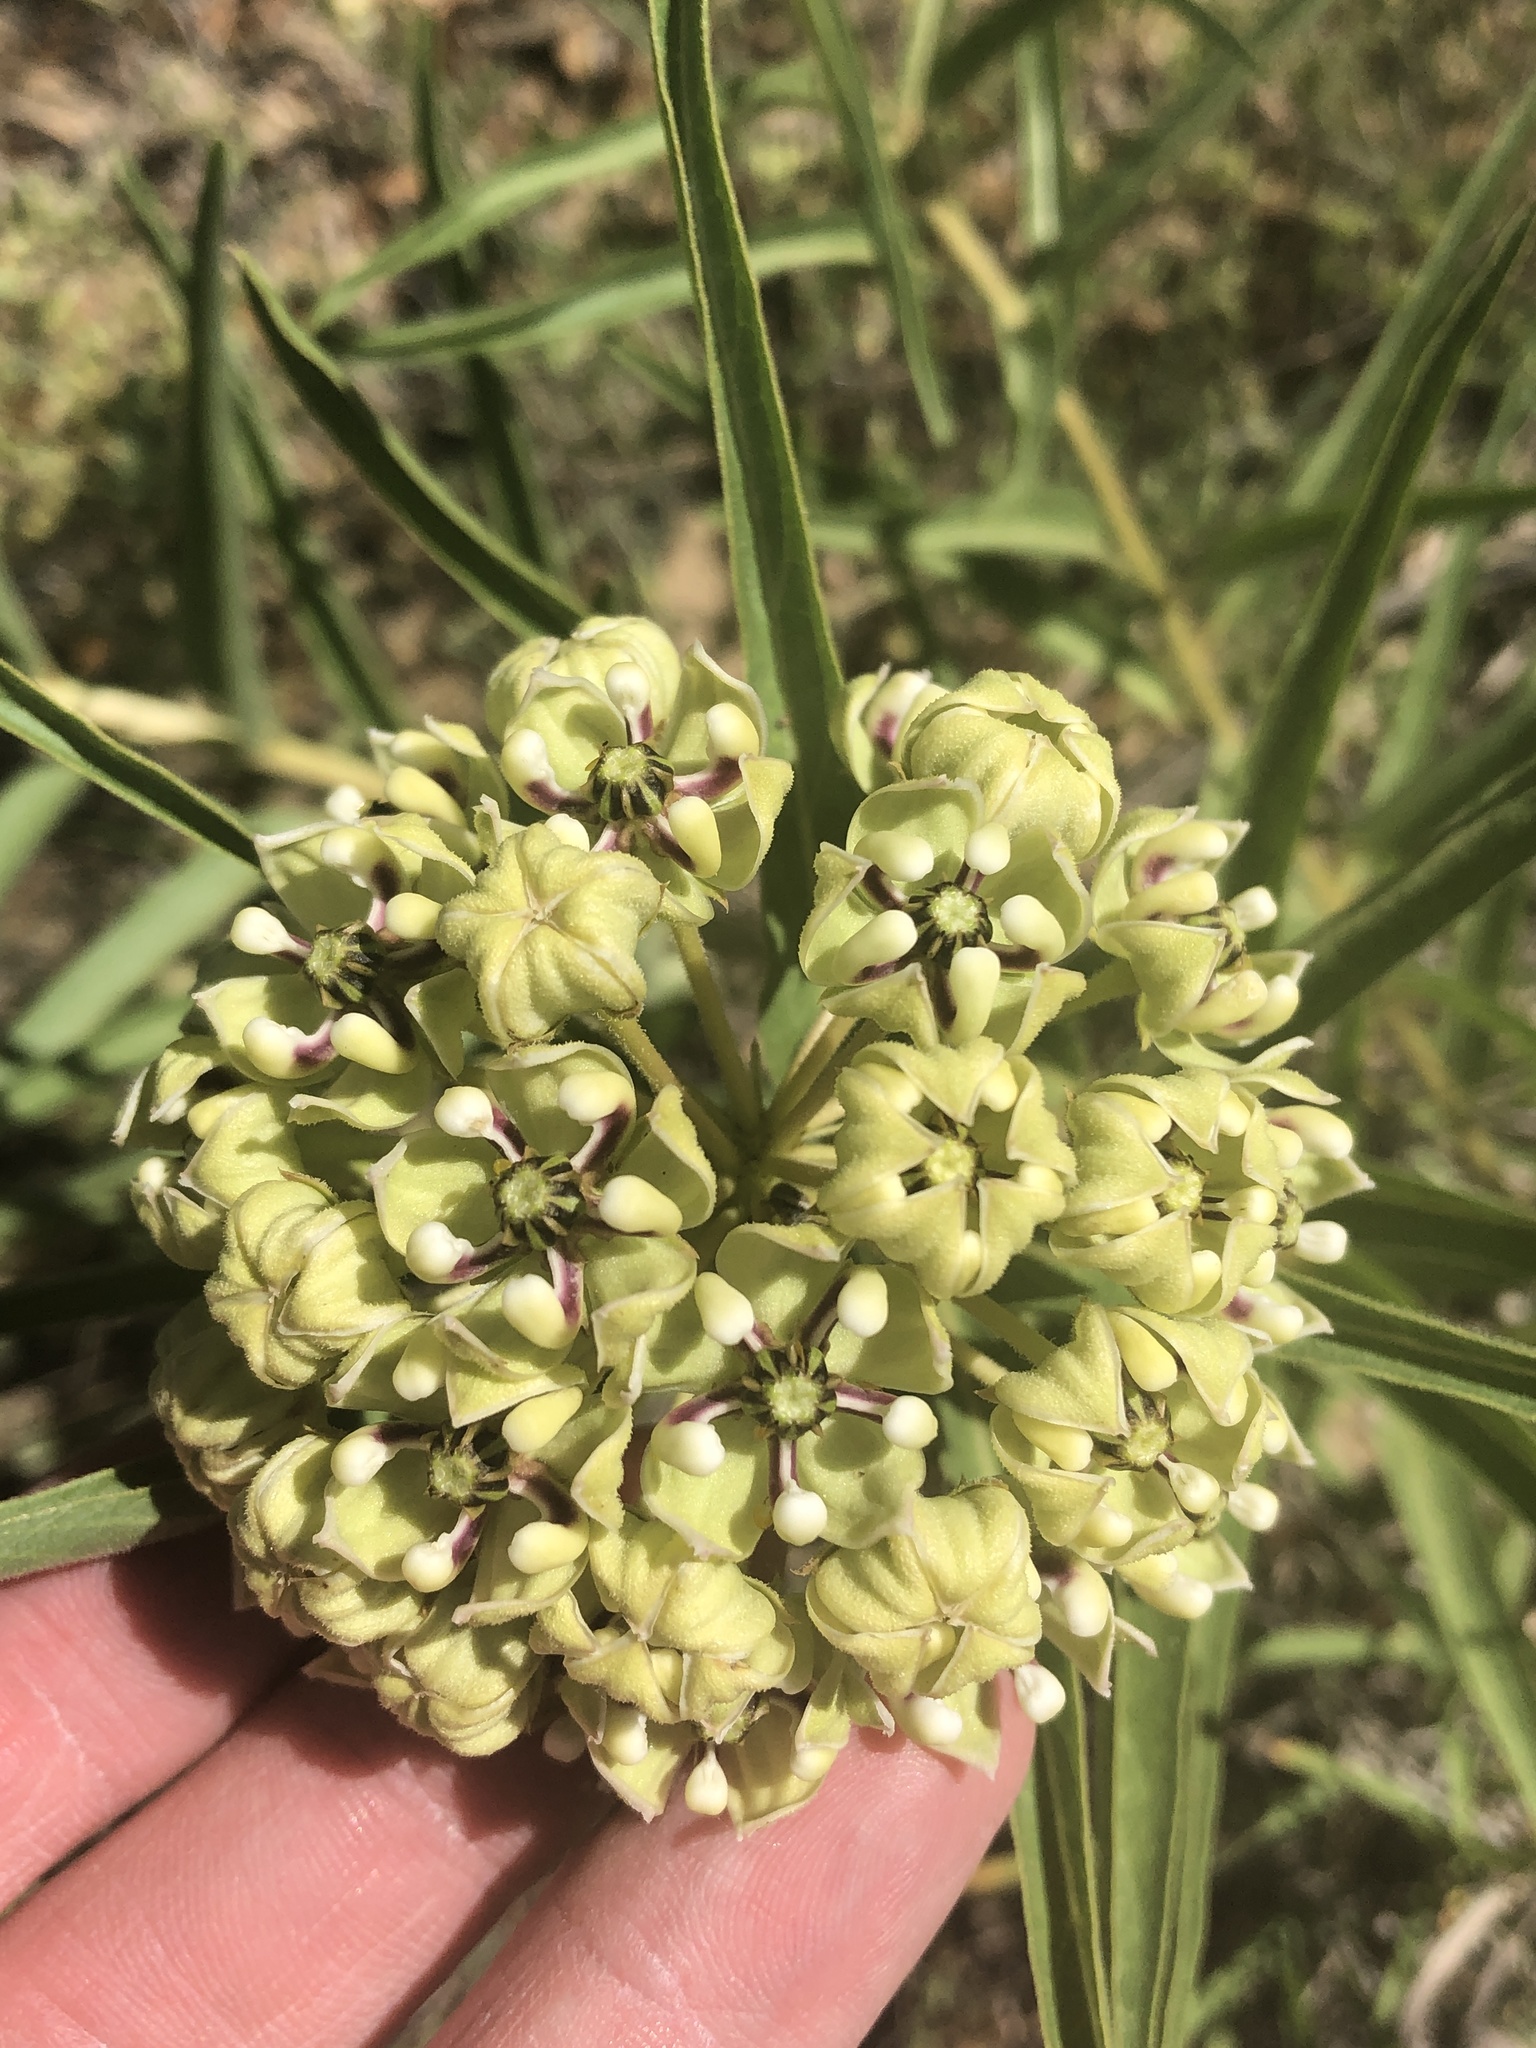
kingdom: Plantae
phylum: Tracheophyta
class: Magnoliopsida
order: Gentianales
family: Apocynaceae
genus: Asclepias
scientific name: Asclepias asperula
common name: Antelope horns
